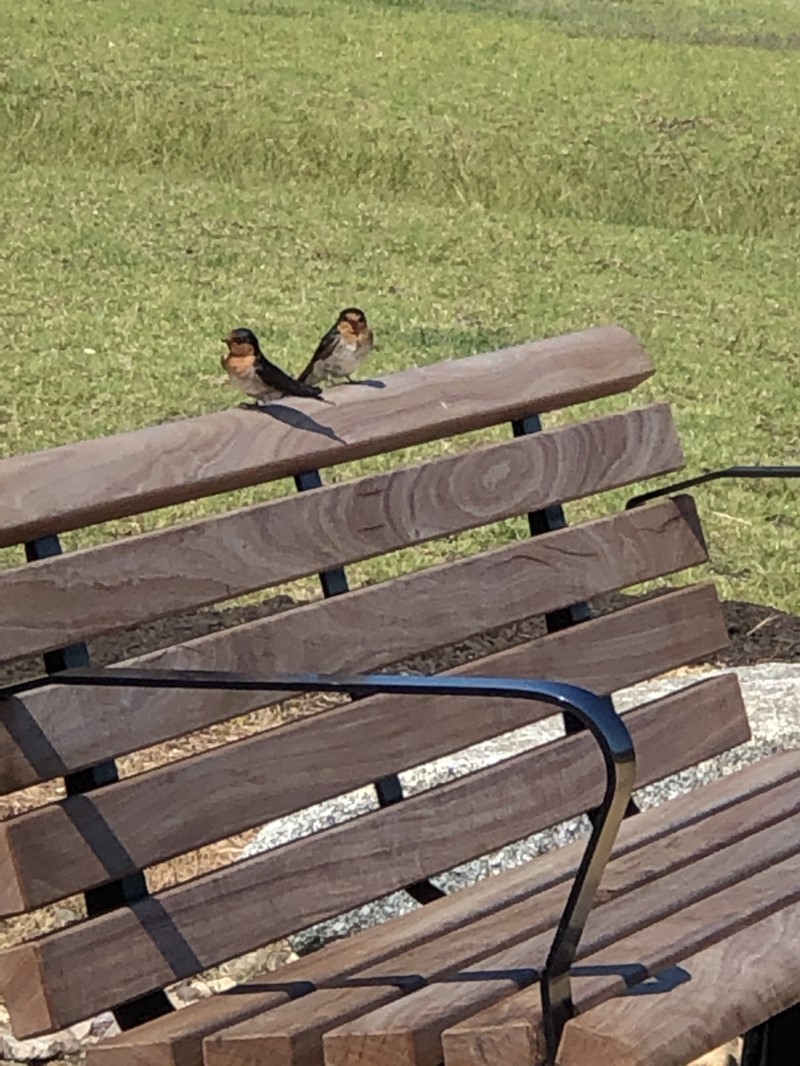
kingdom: Animalia
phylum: Chordata
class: Aves
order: Passeriformes
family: Hirundinidae
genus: Hirundo
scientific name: Hirundo neoxena
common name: Welcome swallow
